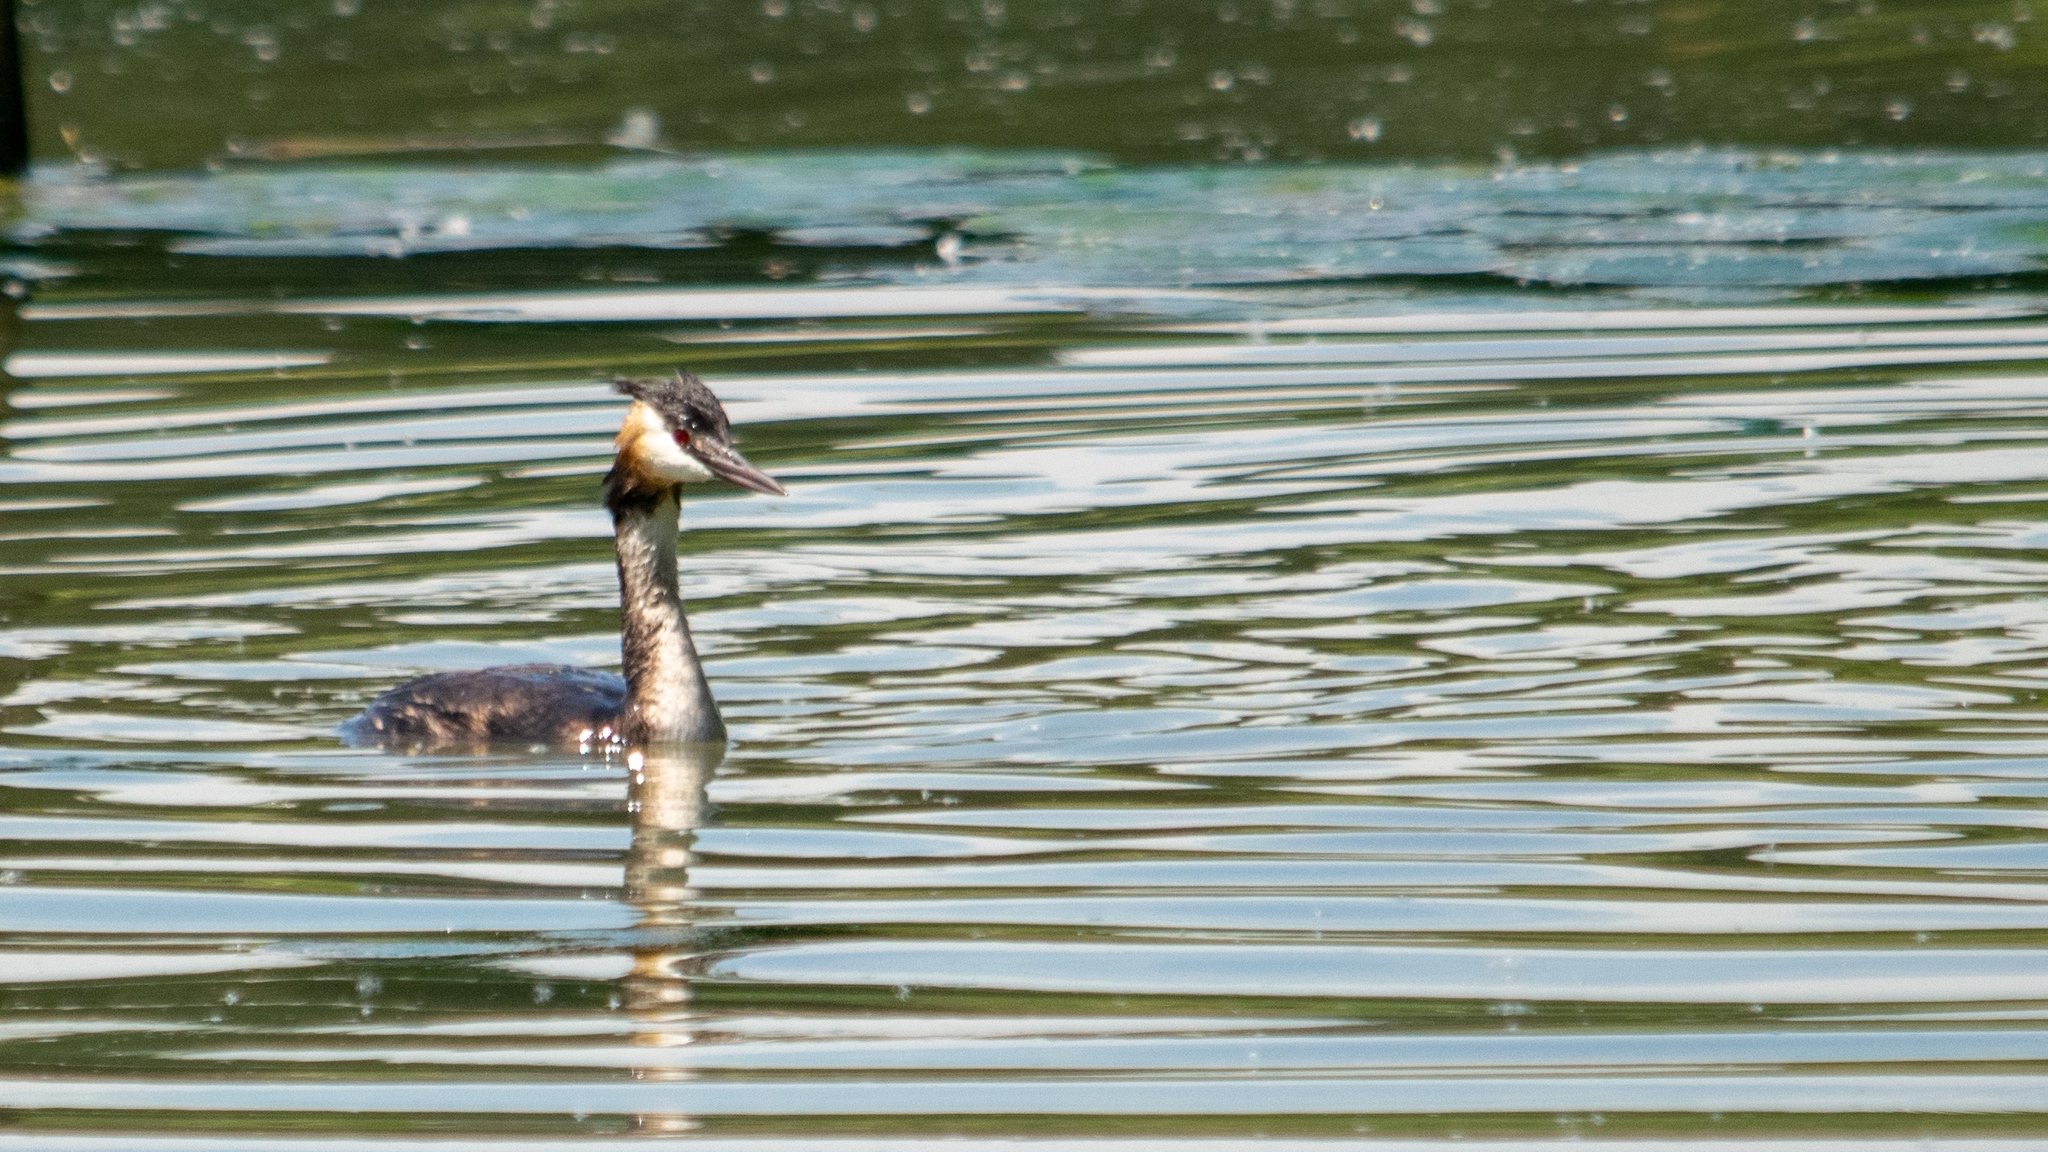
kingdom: Animalia
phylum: Chordata
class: Aves
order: Podicipediformes
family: Podicipedidae
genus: Podiceps
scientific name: Podiceps cristatus
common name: Great crested grebe
